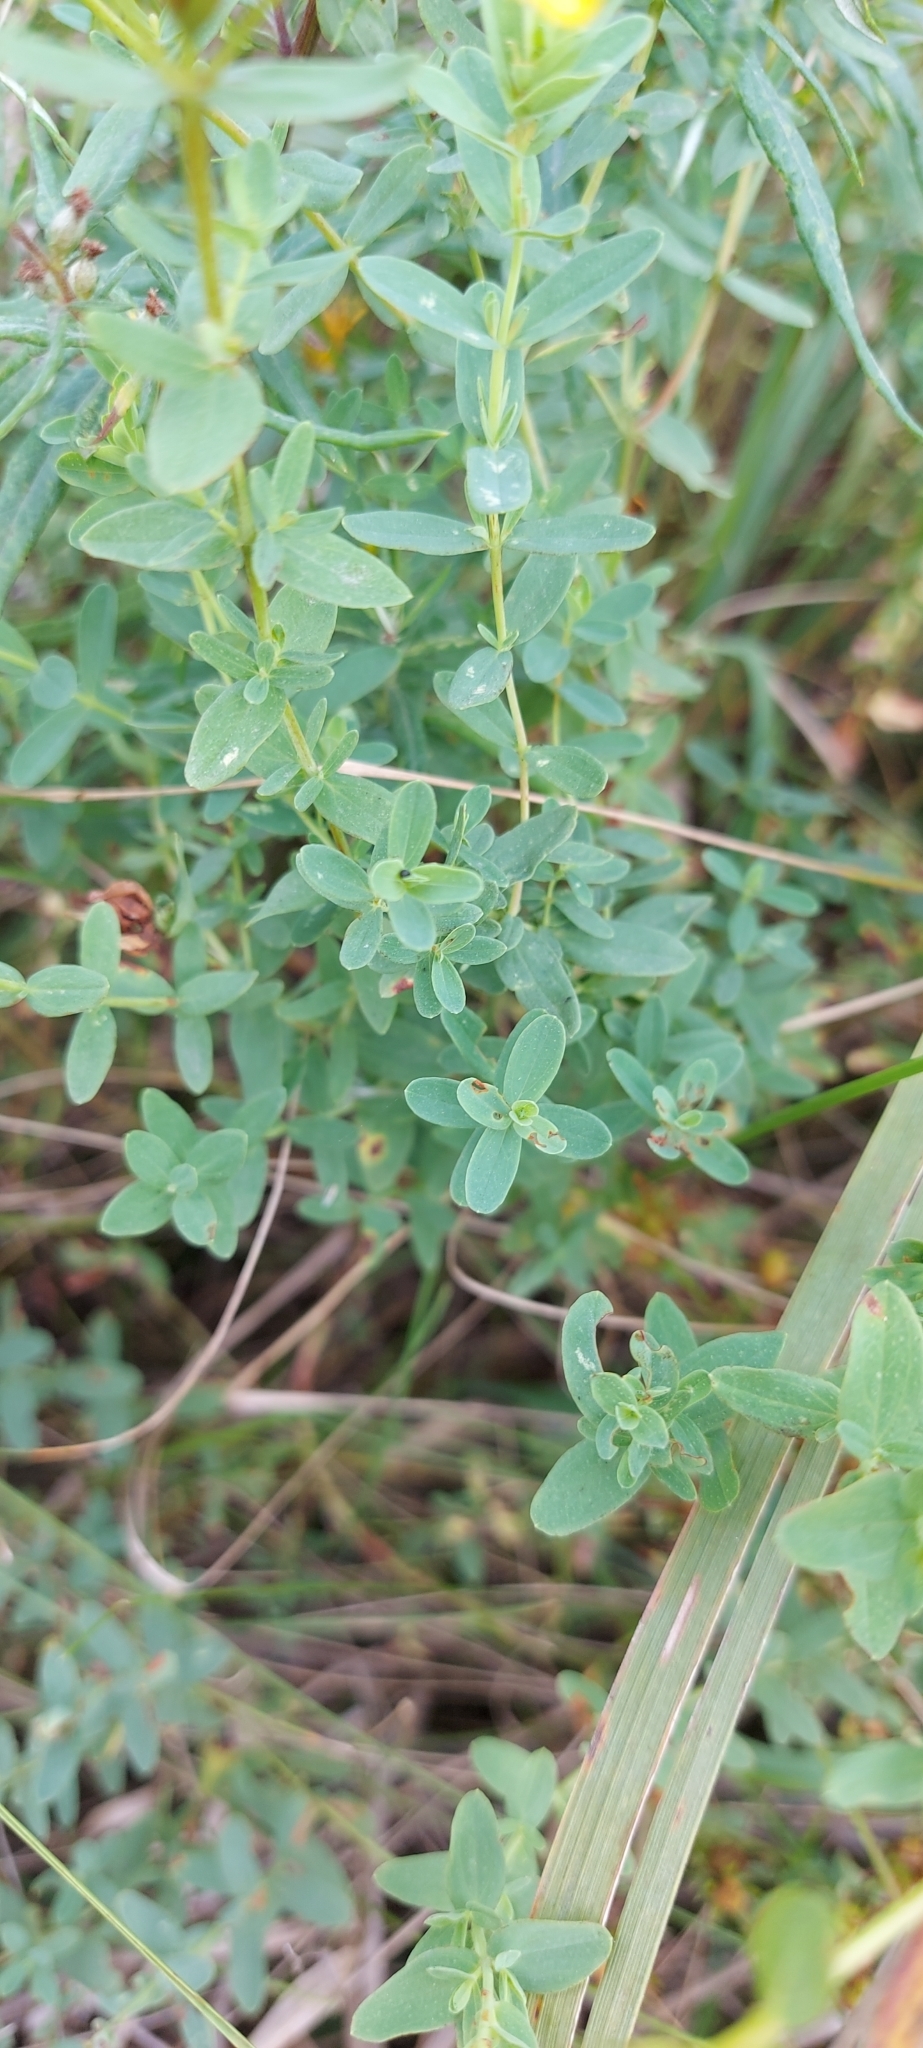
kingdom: Plantae
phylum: Tracheophyta
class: Magnoliopsida
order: Malpighiales
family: Hypericaceae
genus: Hypericum
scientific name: Hypericum perforatum
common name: Common st. johnswort
